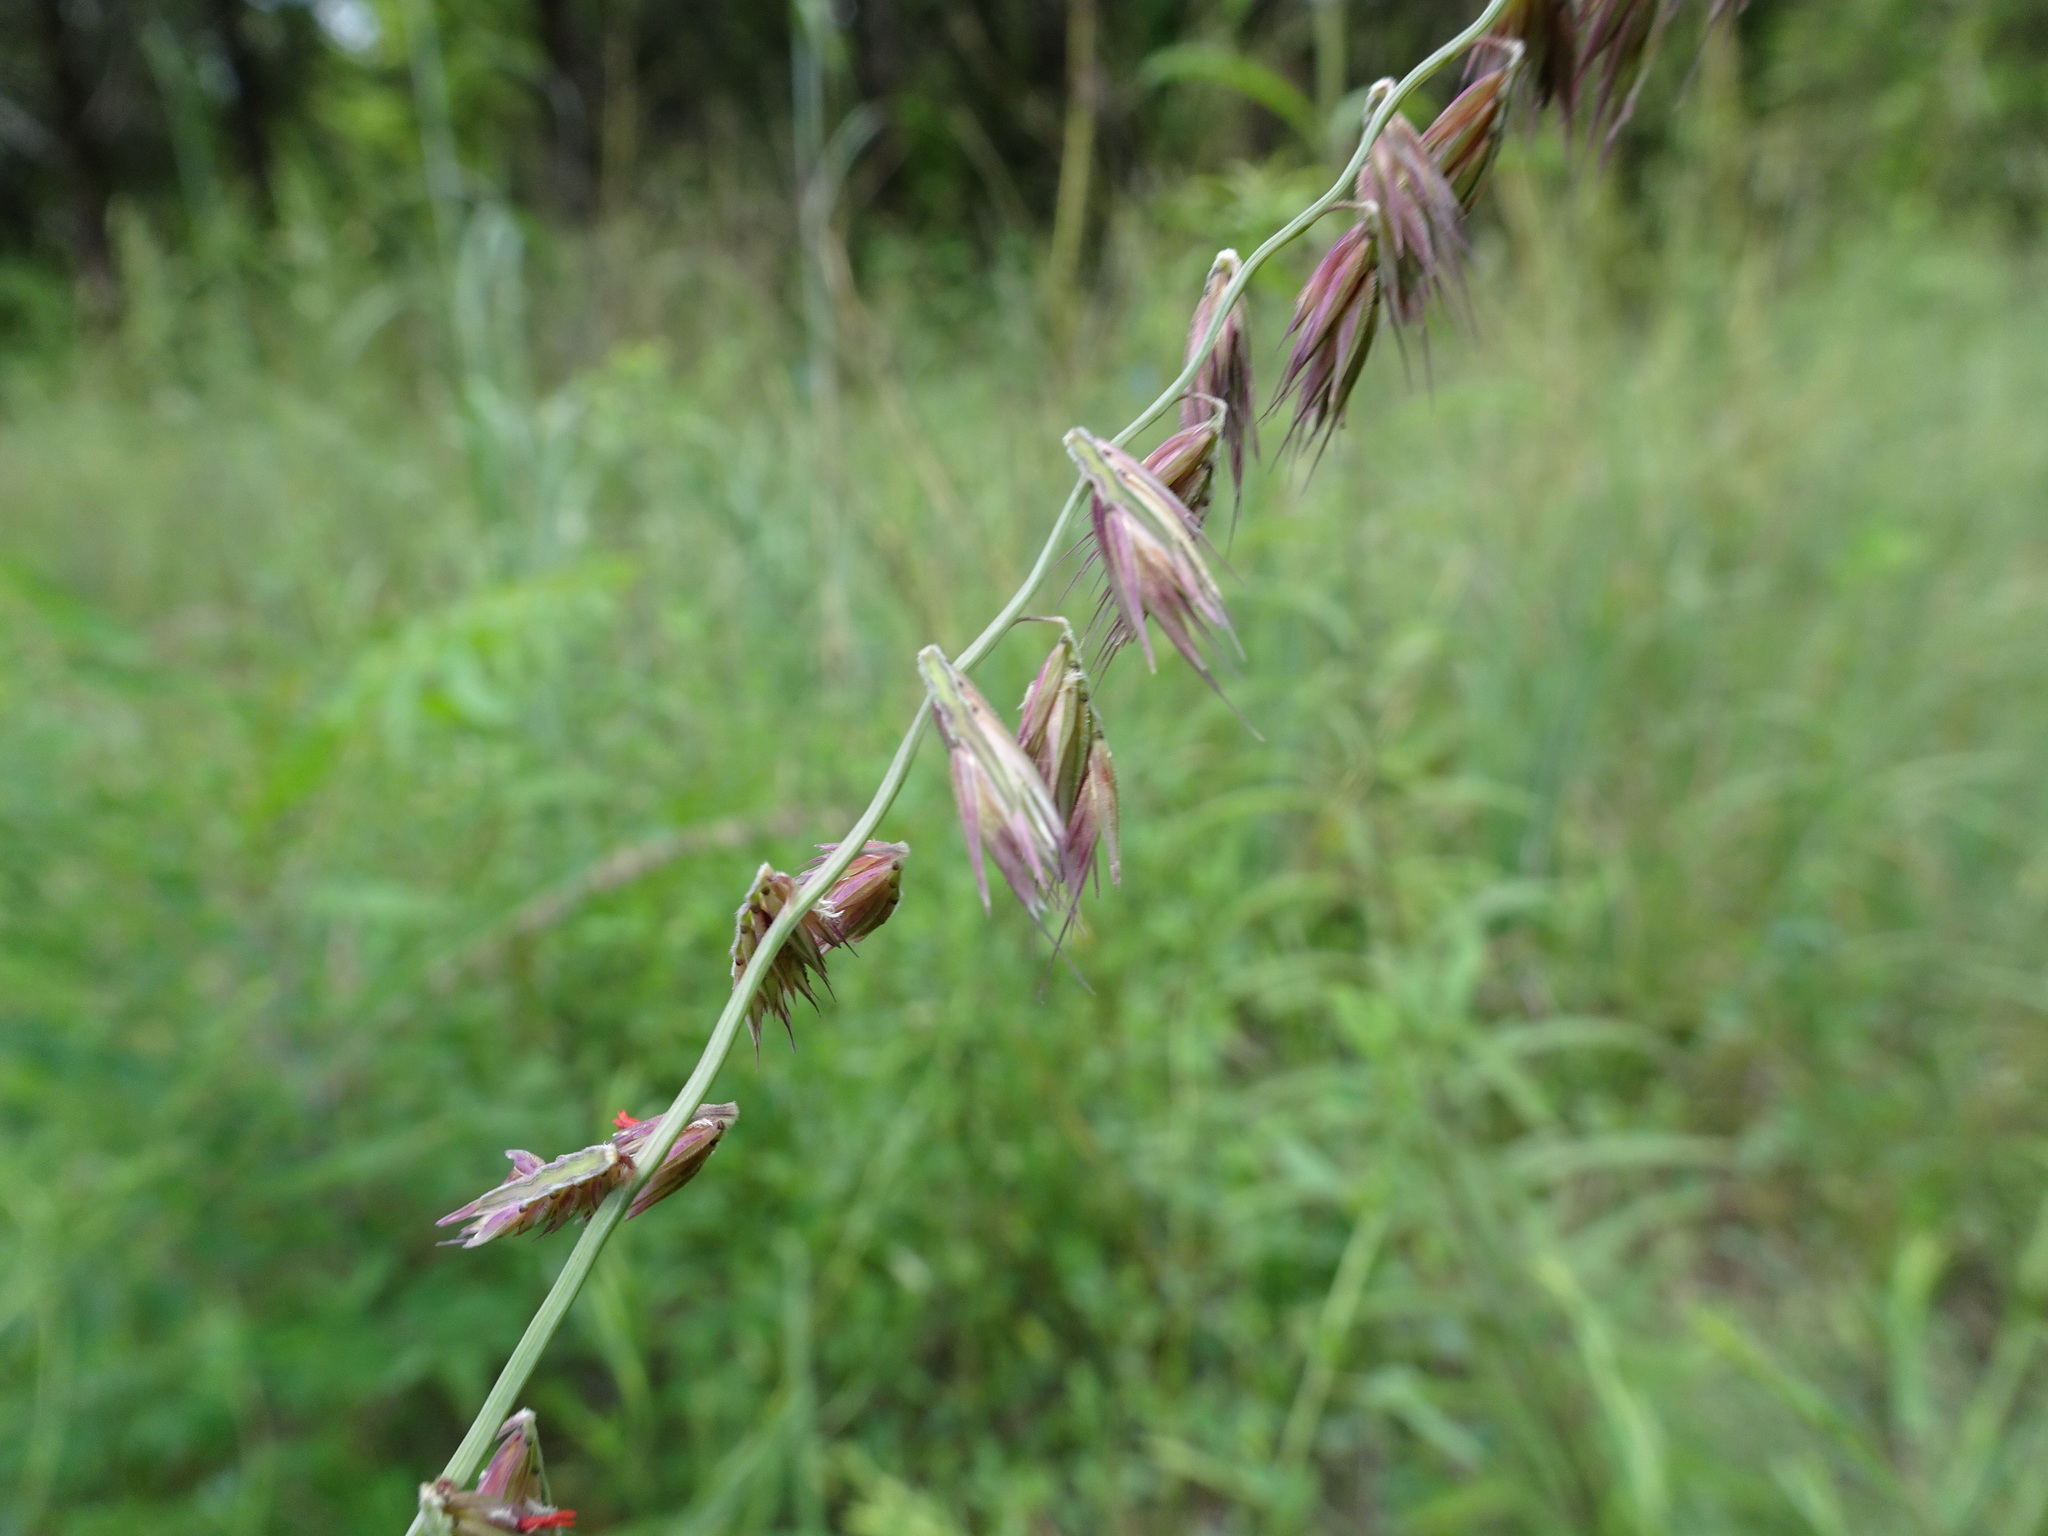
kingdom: Plantae
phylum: Tracheophyta
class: Liliopsida
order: Poales
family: Poaceae
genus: Bouteloua
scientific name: Bouteloua curtipendula
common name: Side-oats grama
